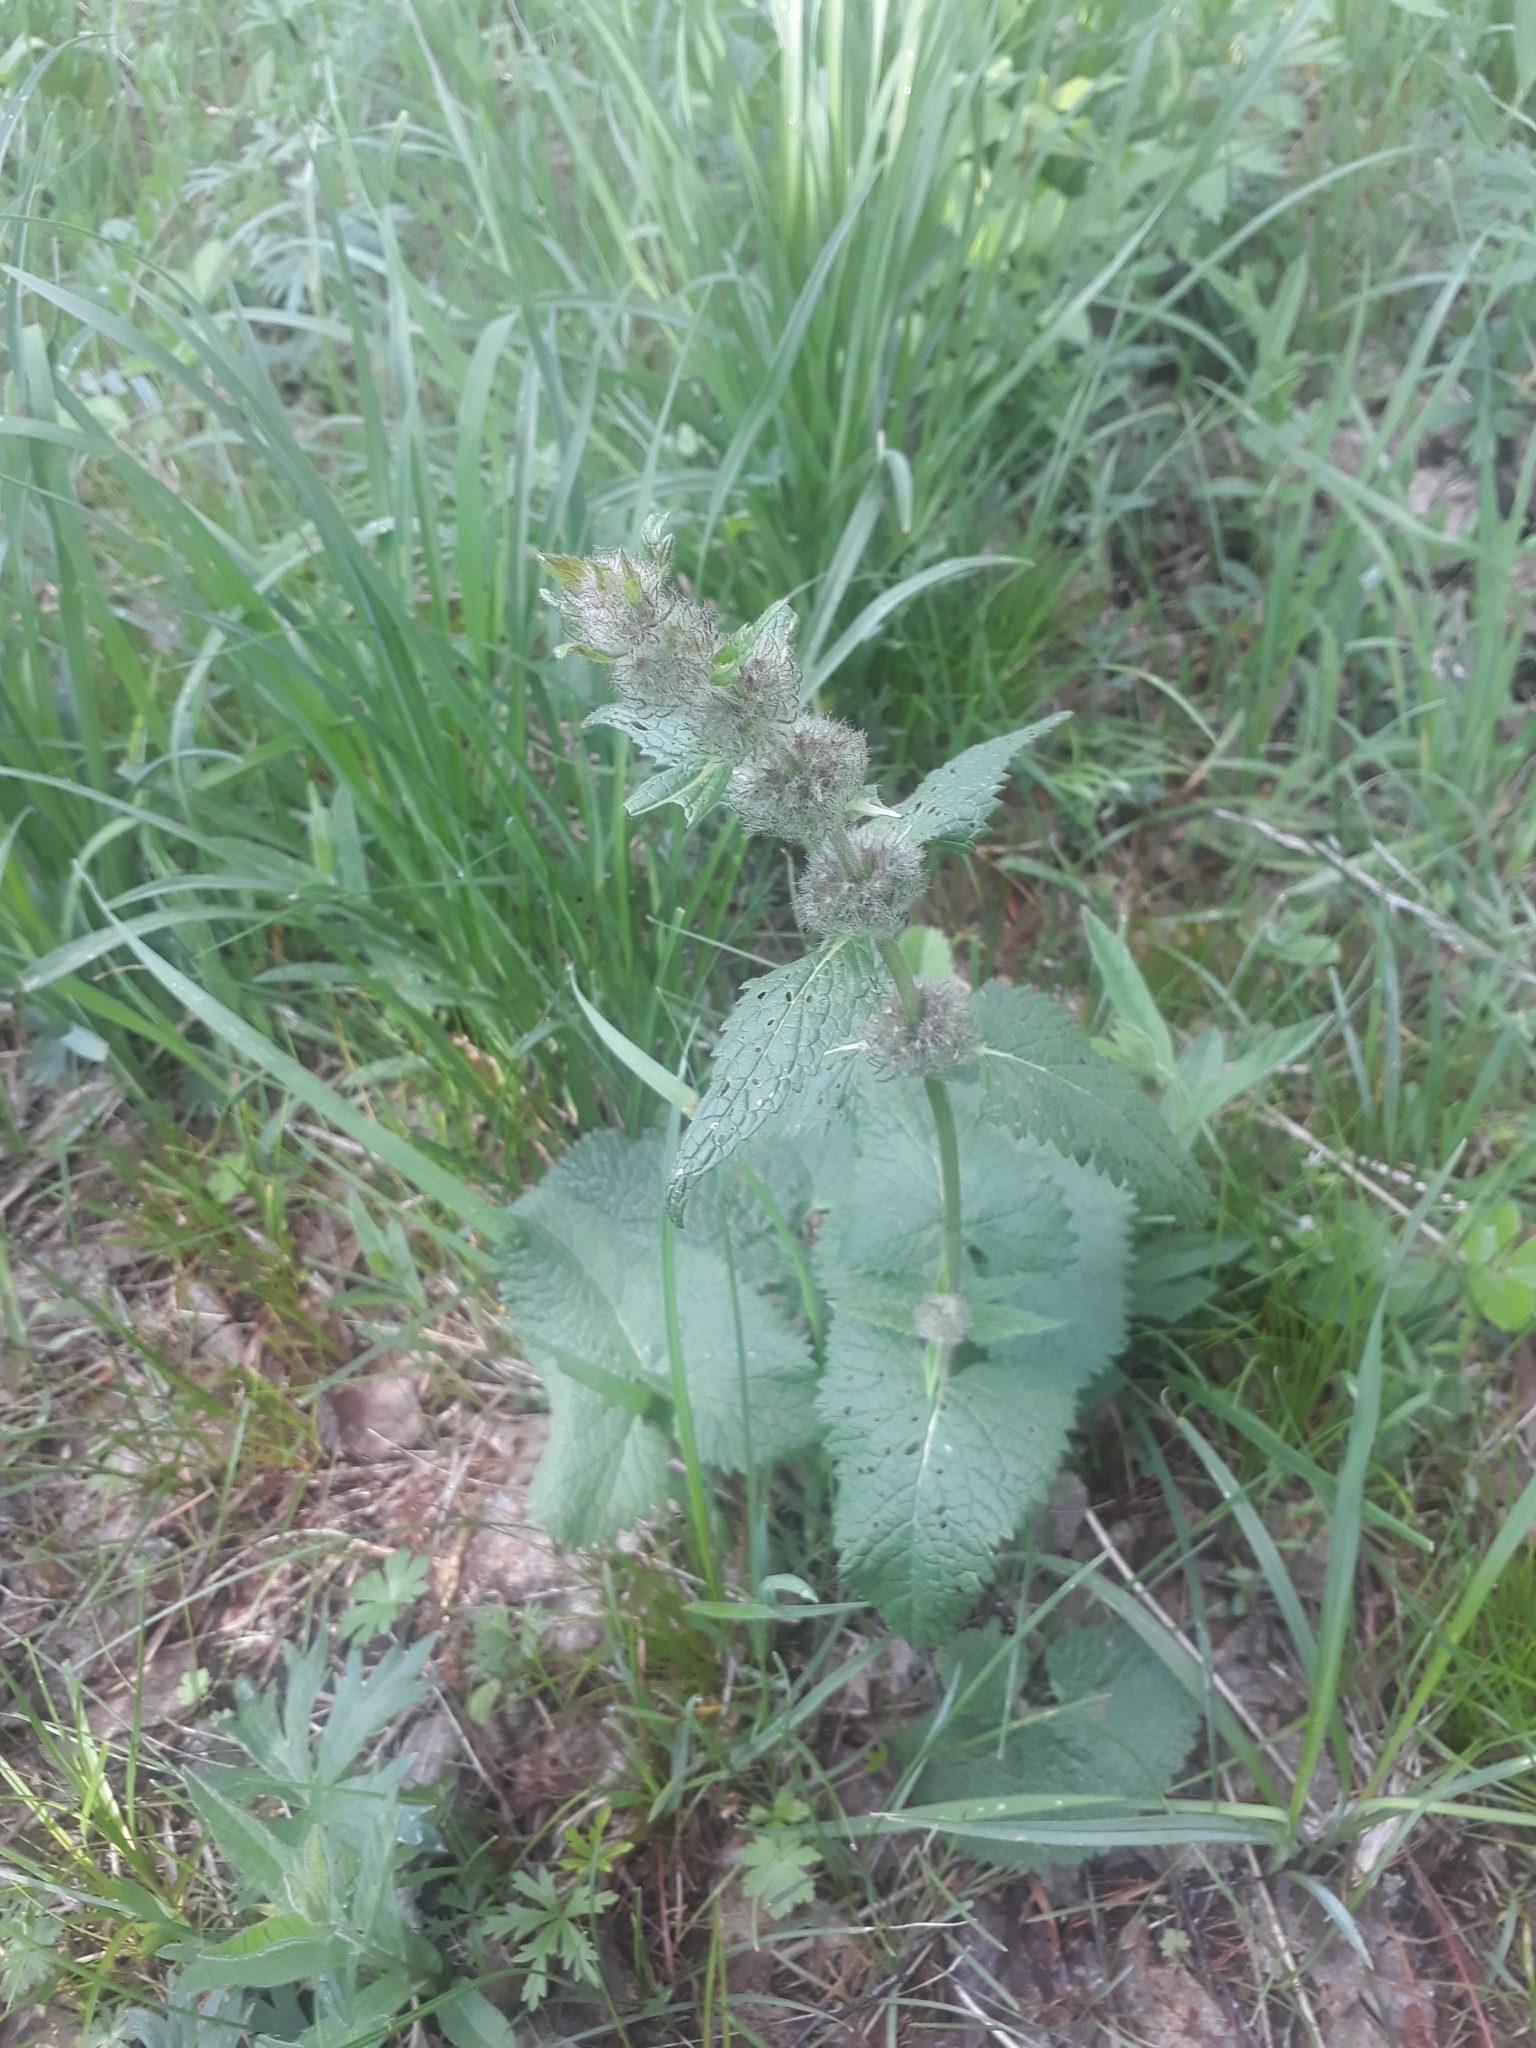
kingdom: Plantae
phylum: Tracheophyta
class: Magnoliopsida
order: Lamiales
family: Lamiaceae
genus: Phlomoides
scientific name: Phlomoides tuberosa
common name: Tuberous jerusalem sage
